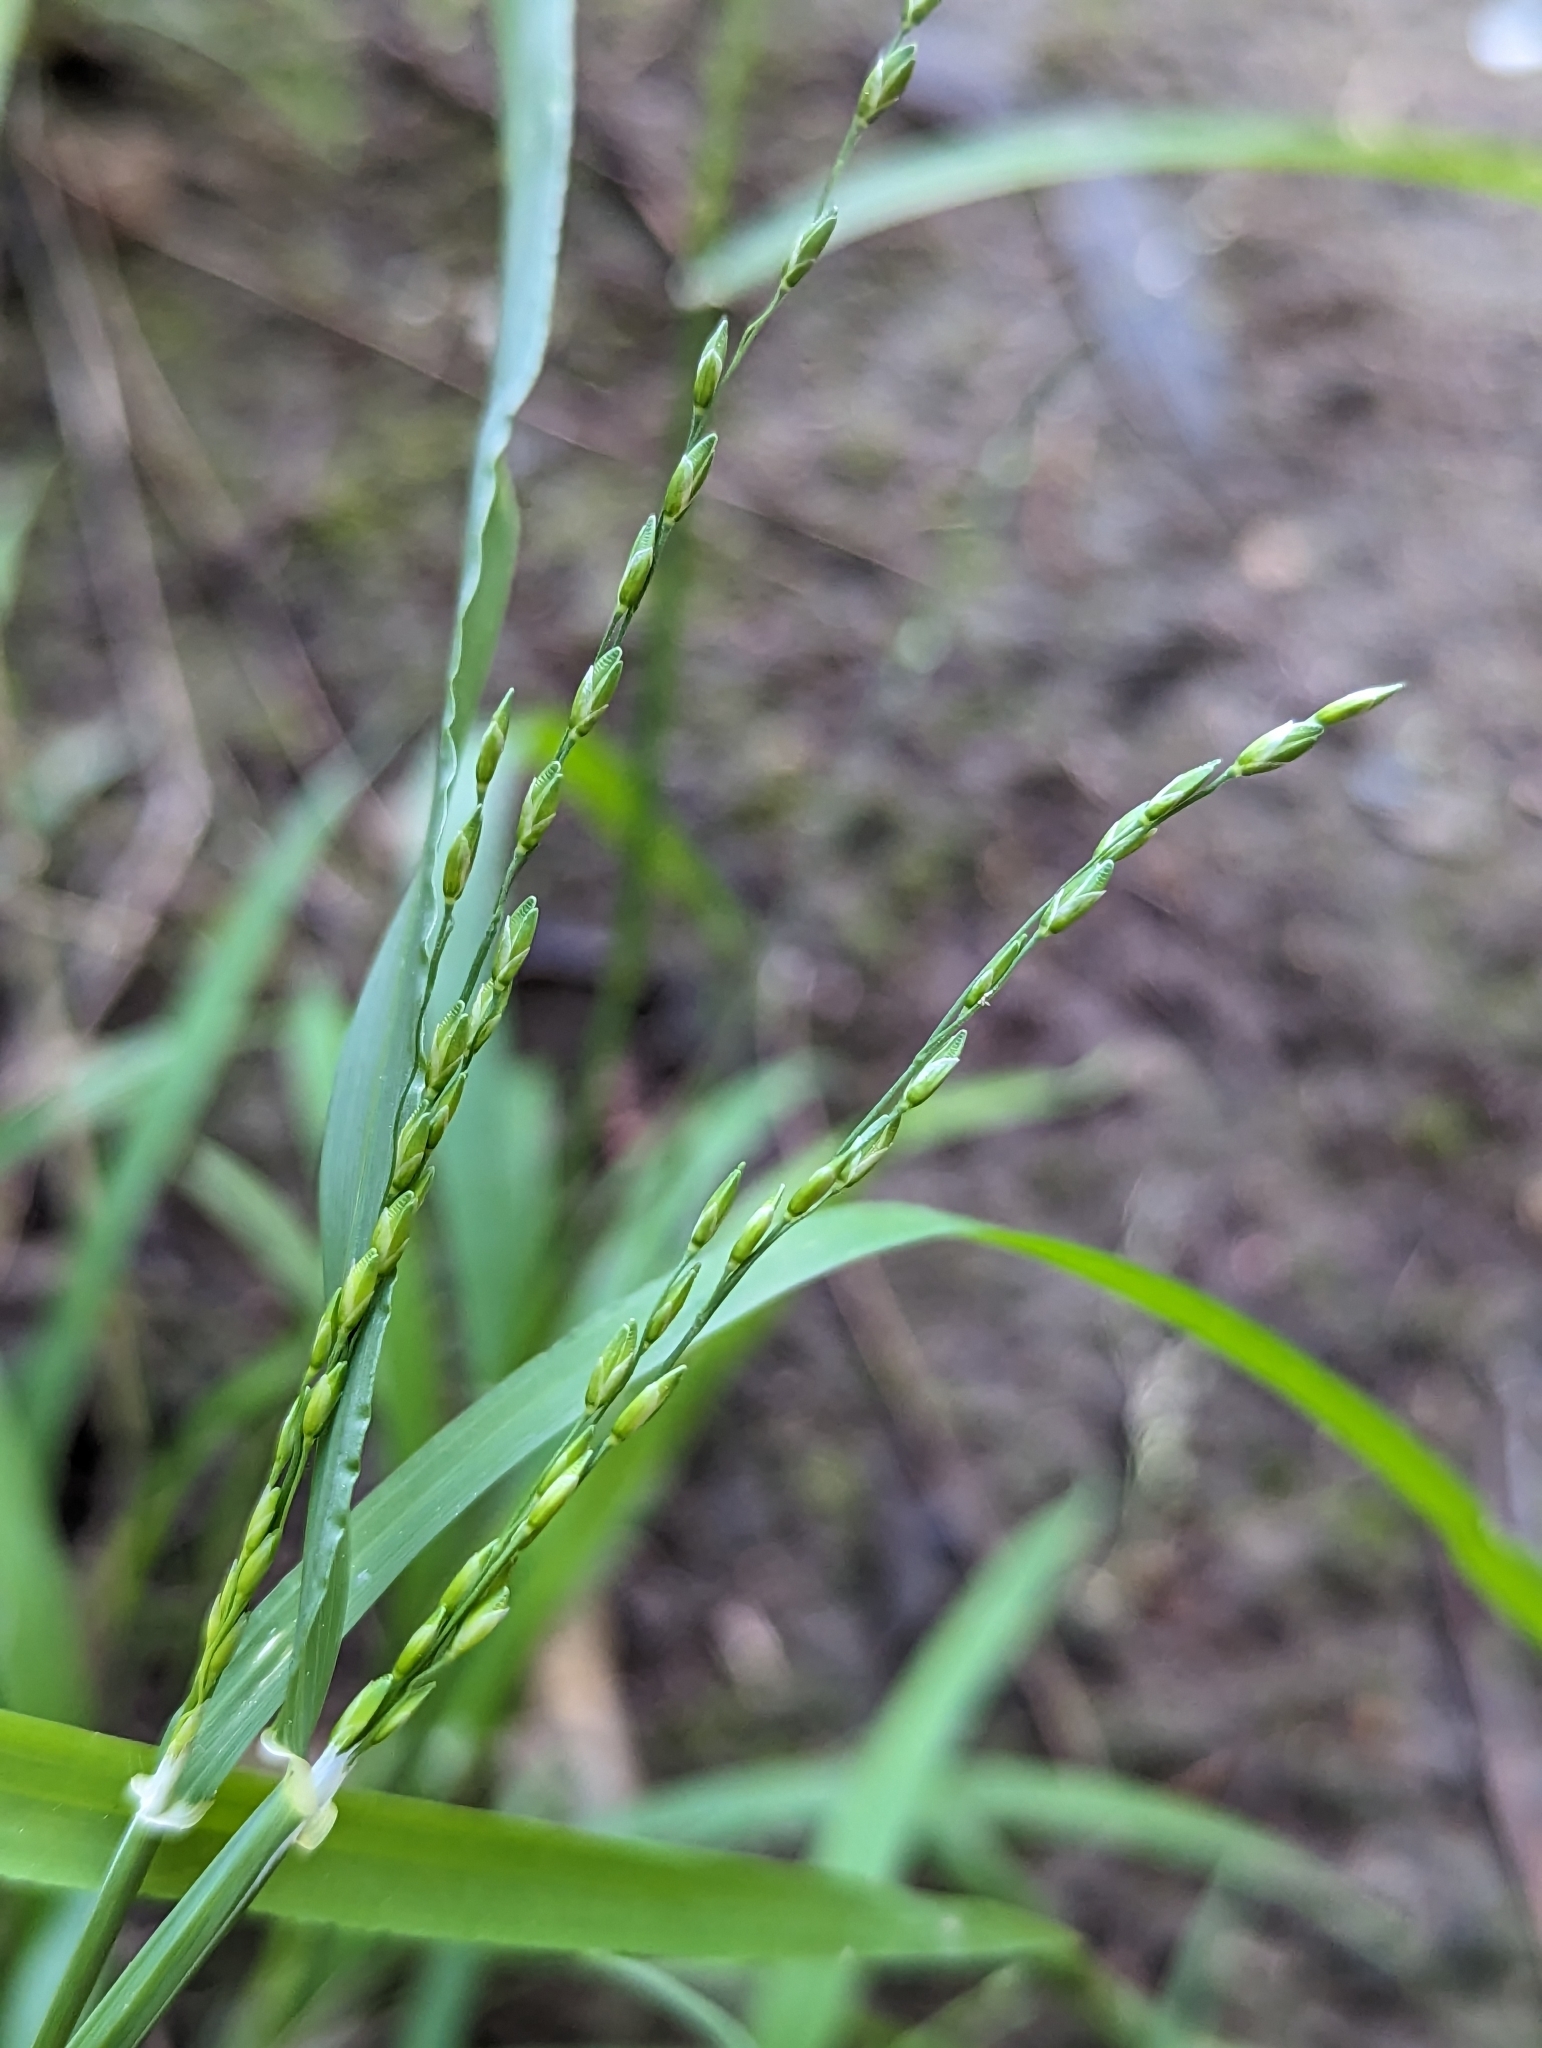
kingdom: Plantae
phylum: Tracheophyta
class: Liliopsida
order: Poales
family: Poaceae
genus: Ehrharta
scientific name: Ehrharta erecta
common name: Panic veldtgrass
